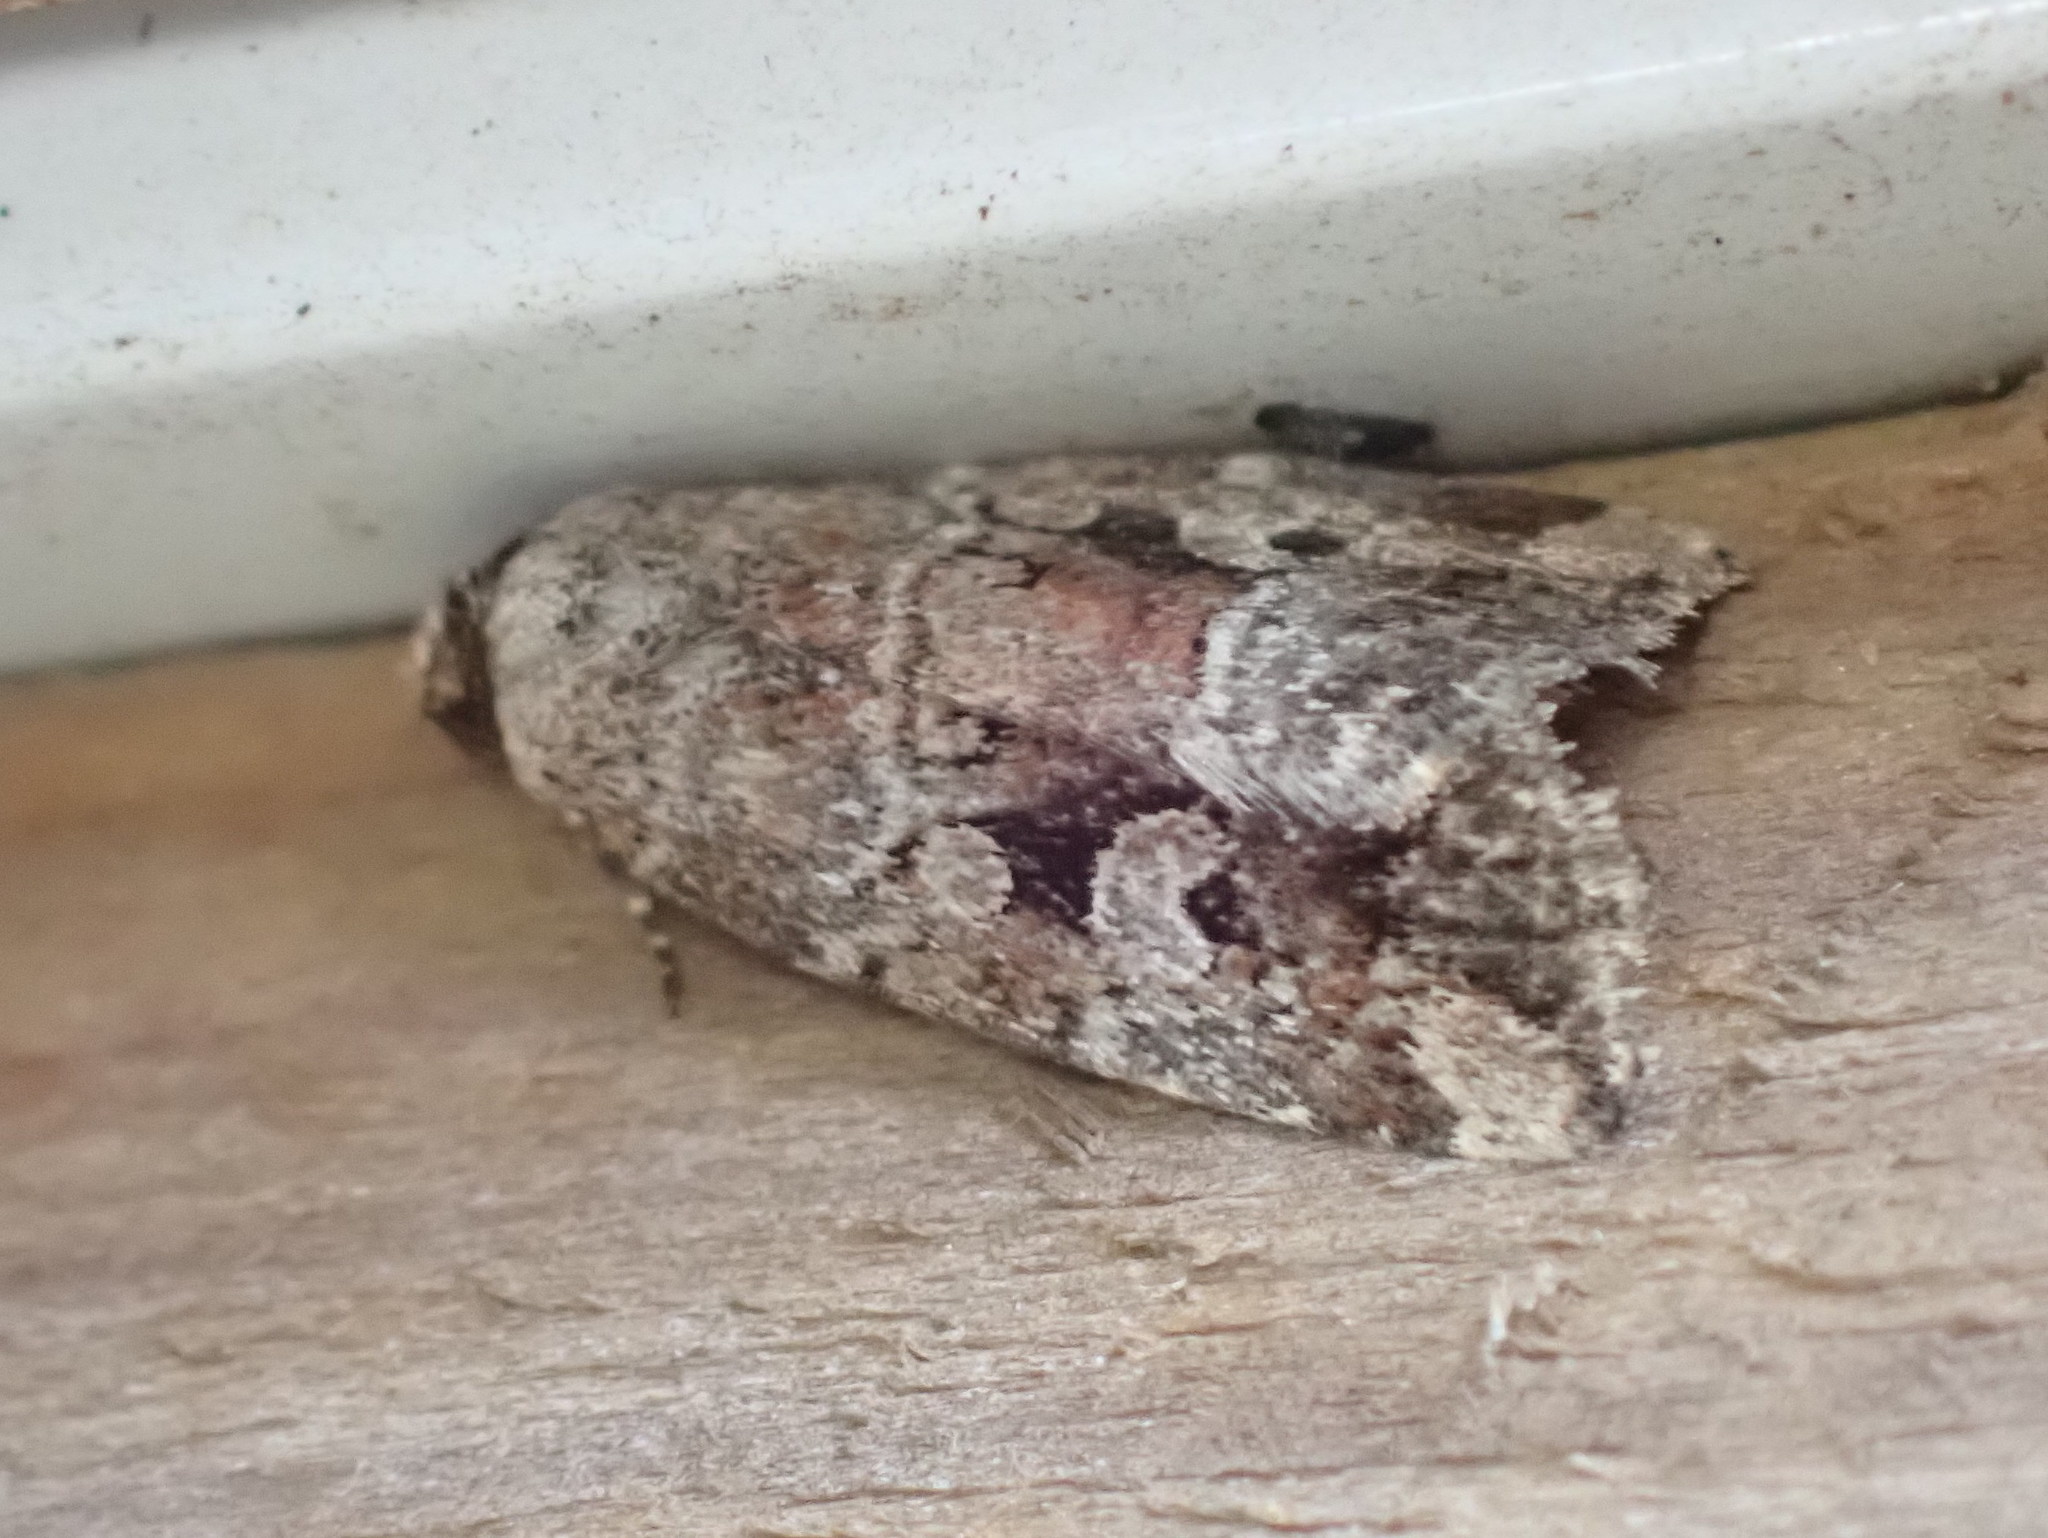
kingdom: Animalia
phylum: Arthropoda
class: Insecta
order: Lepidoptera
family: Noctuidae
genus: Elaphria
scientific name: Elaphria alapallida
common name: Pale-winged midget
